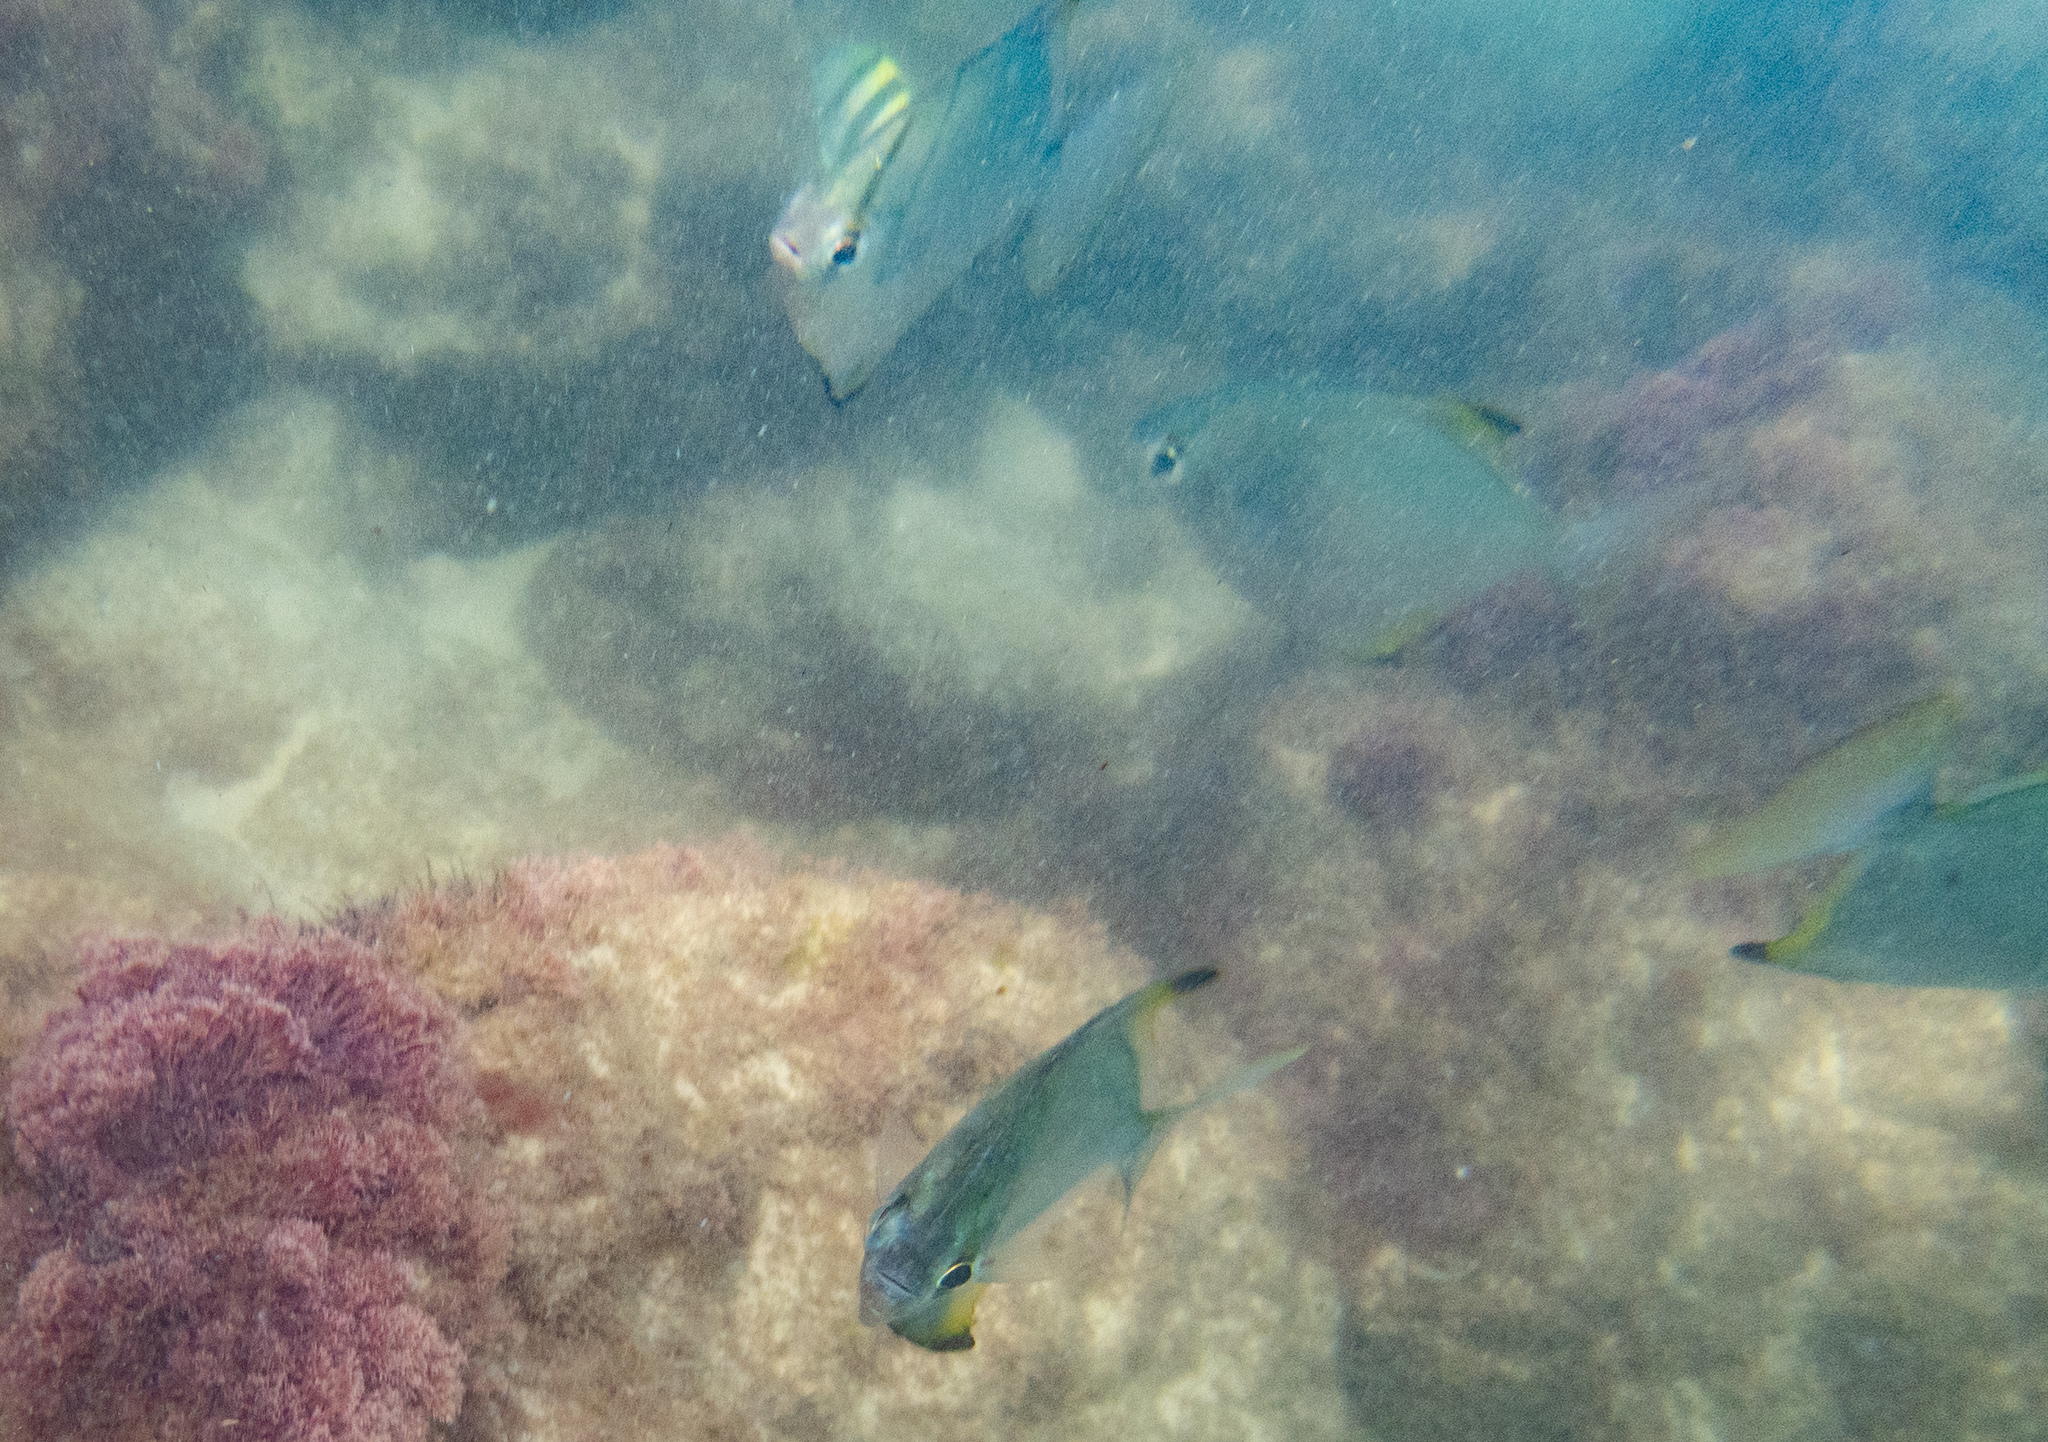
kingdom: Animalia
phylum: Chordata
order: Perciformes
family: Monodactylidae
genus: Monodactylus
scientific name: Monodactylus argenteus
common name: Silver moony
